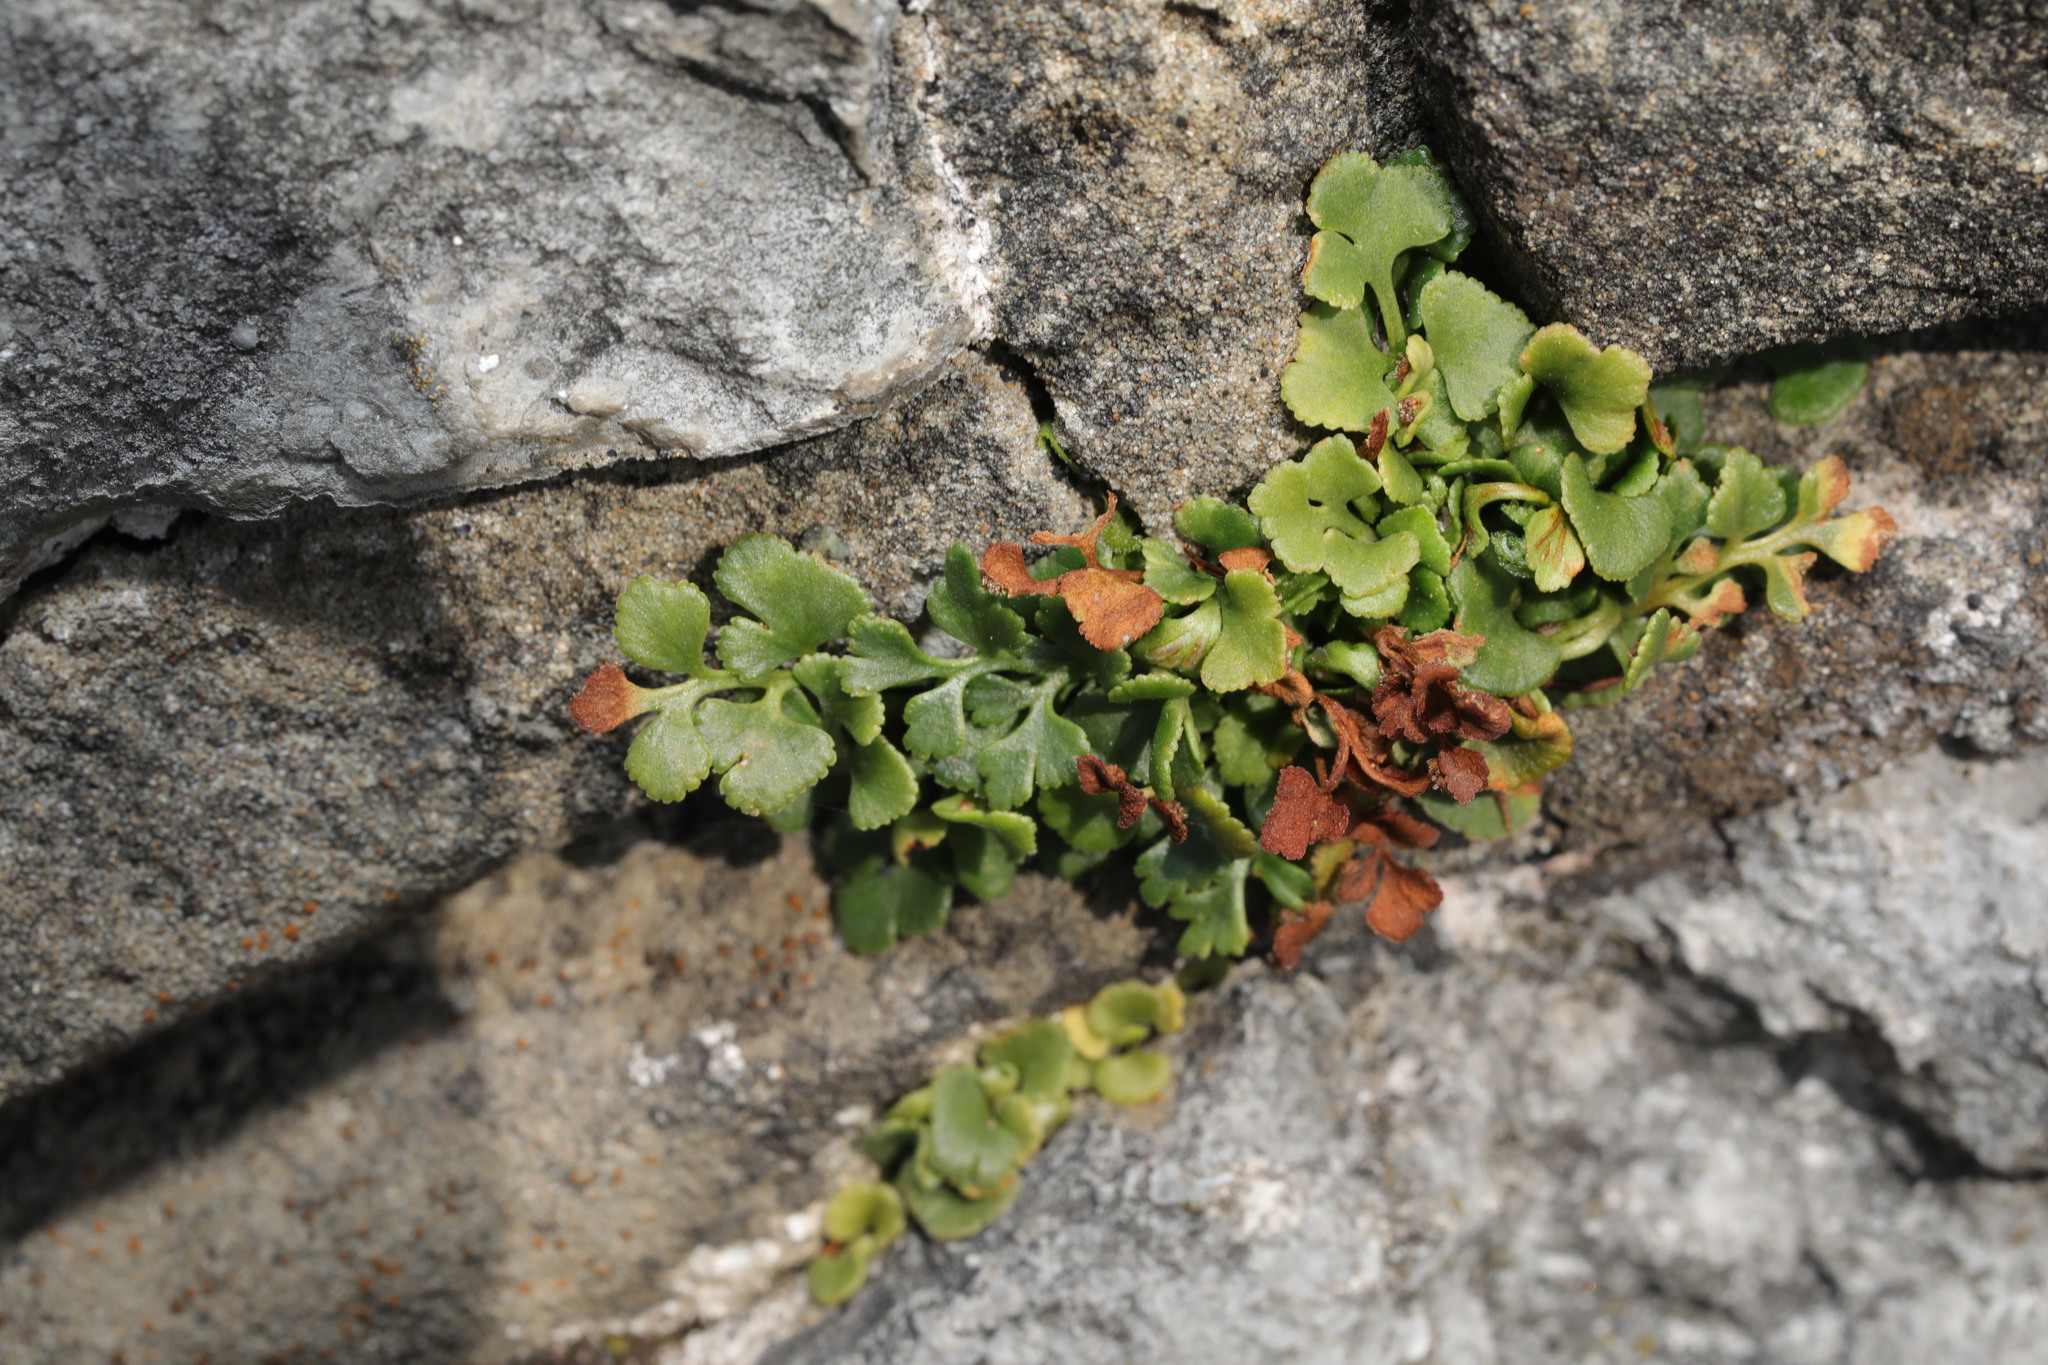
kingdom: Plantae
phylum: Tracheophyta
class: Polypodiopsida
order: Polypodiales
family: Aspleniaceae
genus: Asplenium
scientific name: Asplenium ruta-muraria
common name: Wall-rue
